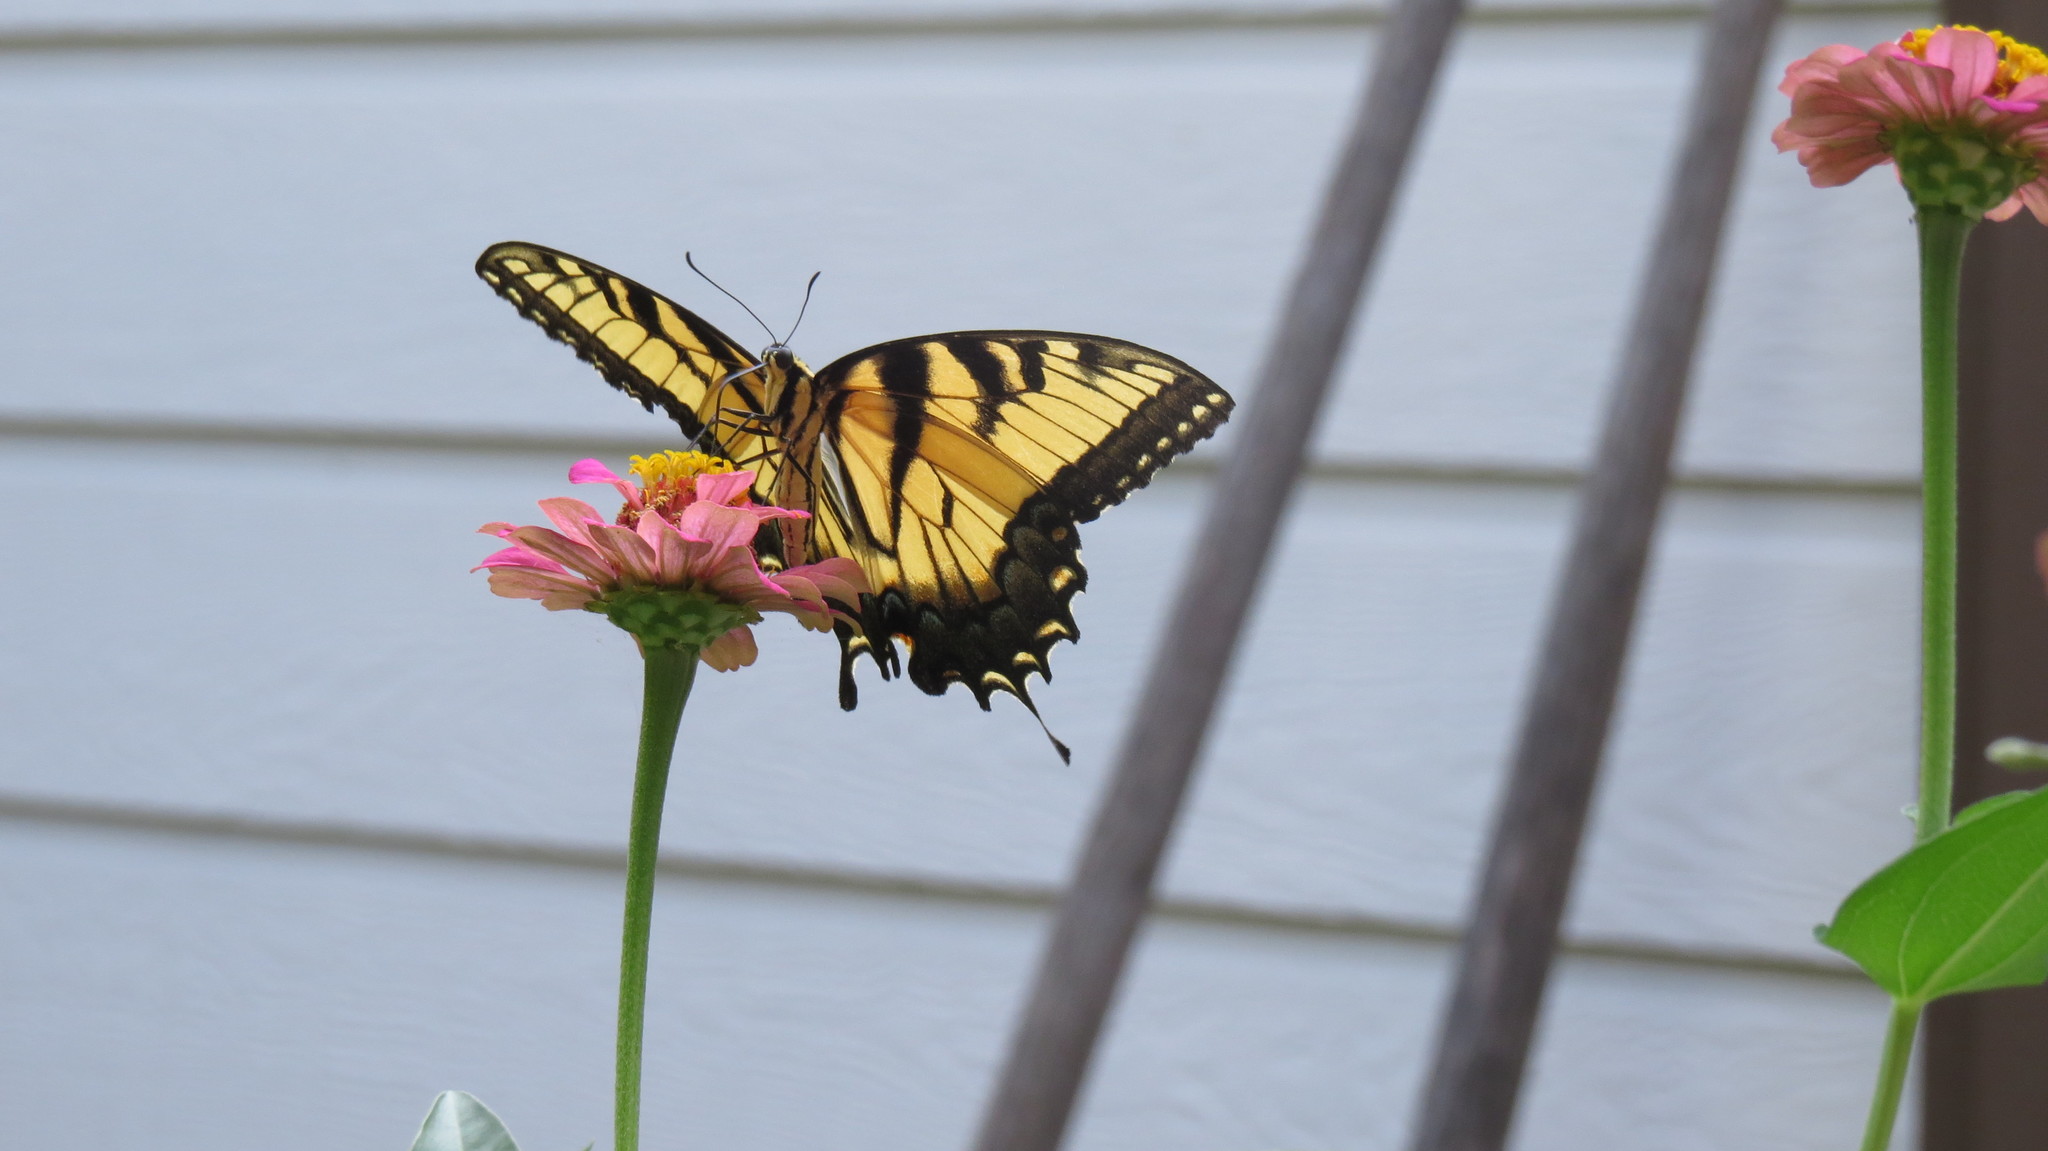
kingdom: Animalia
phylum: Arthropoda
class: Insecta
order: Lepidoptera
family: Papilionidae
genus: Papilio
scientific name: Papilio glaucus
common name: Tiger swallowtail
